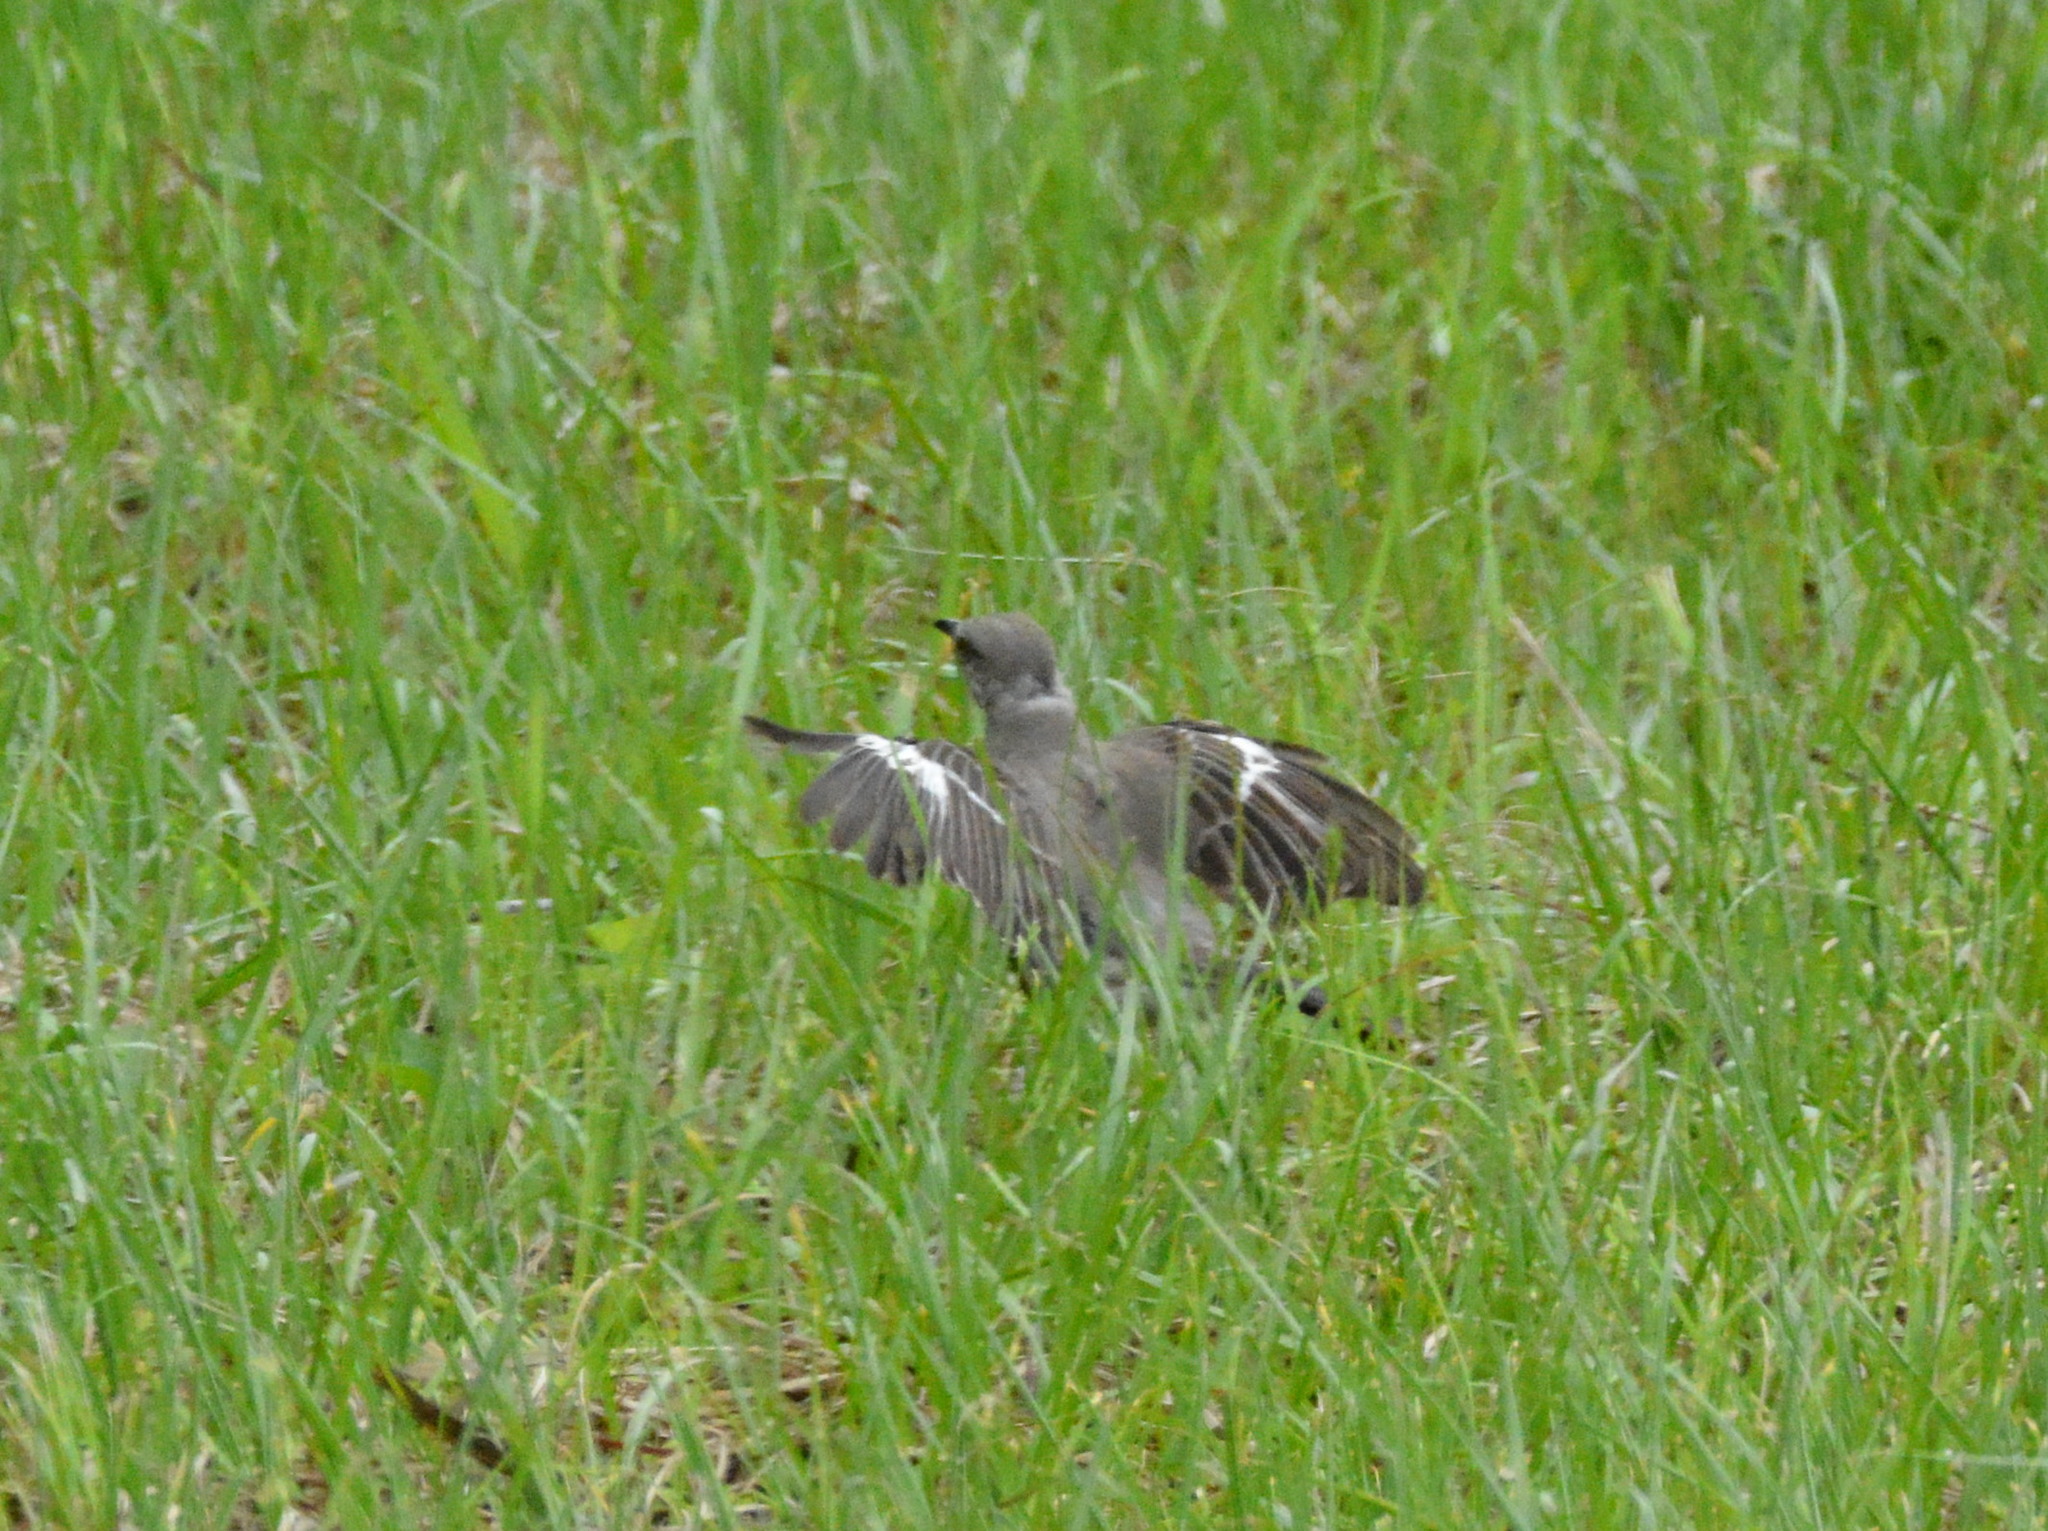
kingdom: Animalia
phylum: Chordata
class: Aves
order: Passeriformes
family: Mimidae
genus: Mimus
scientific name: Mimus polyglottos
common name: Northern mockingbird
